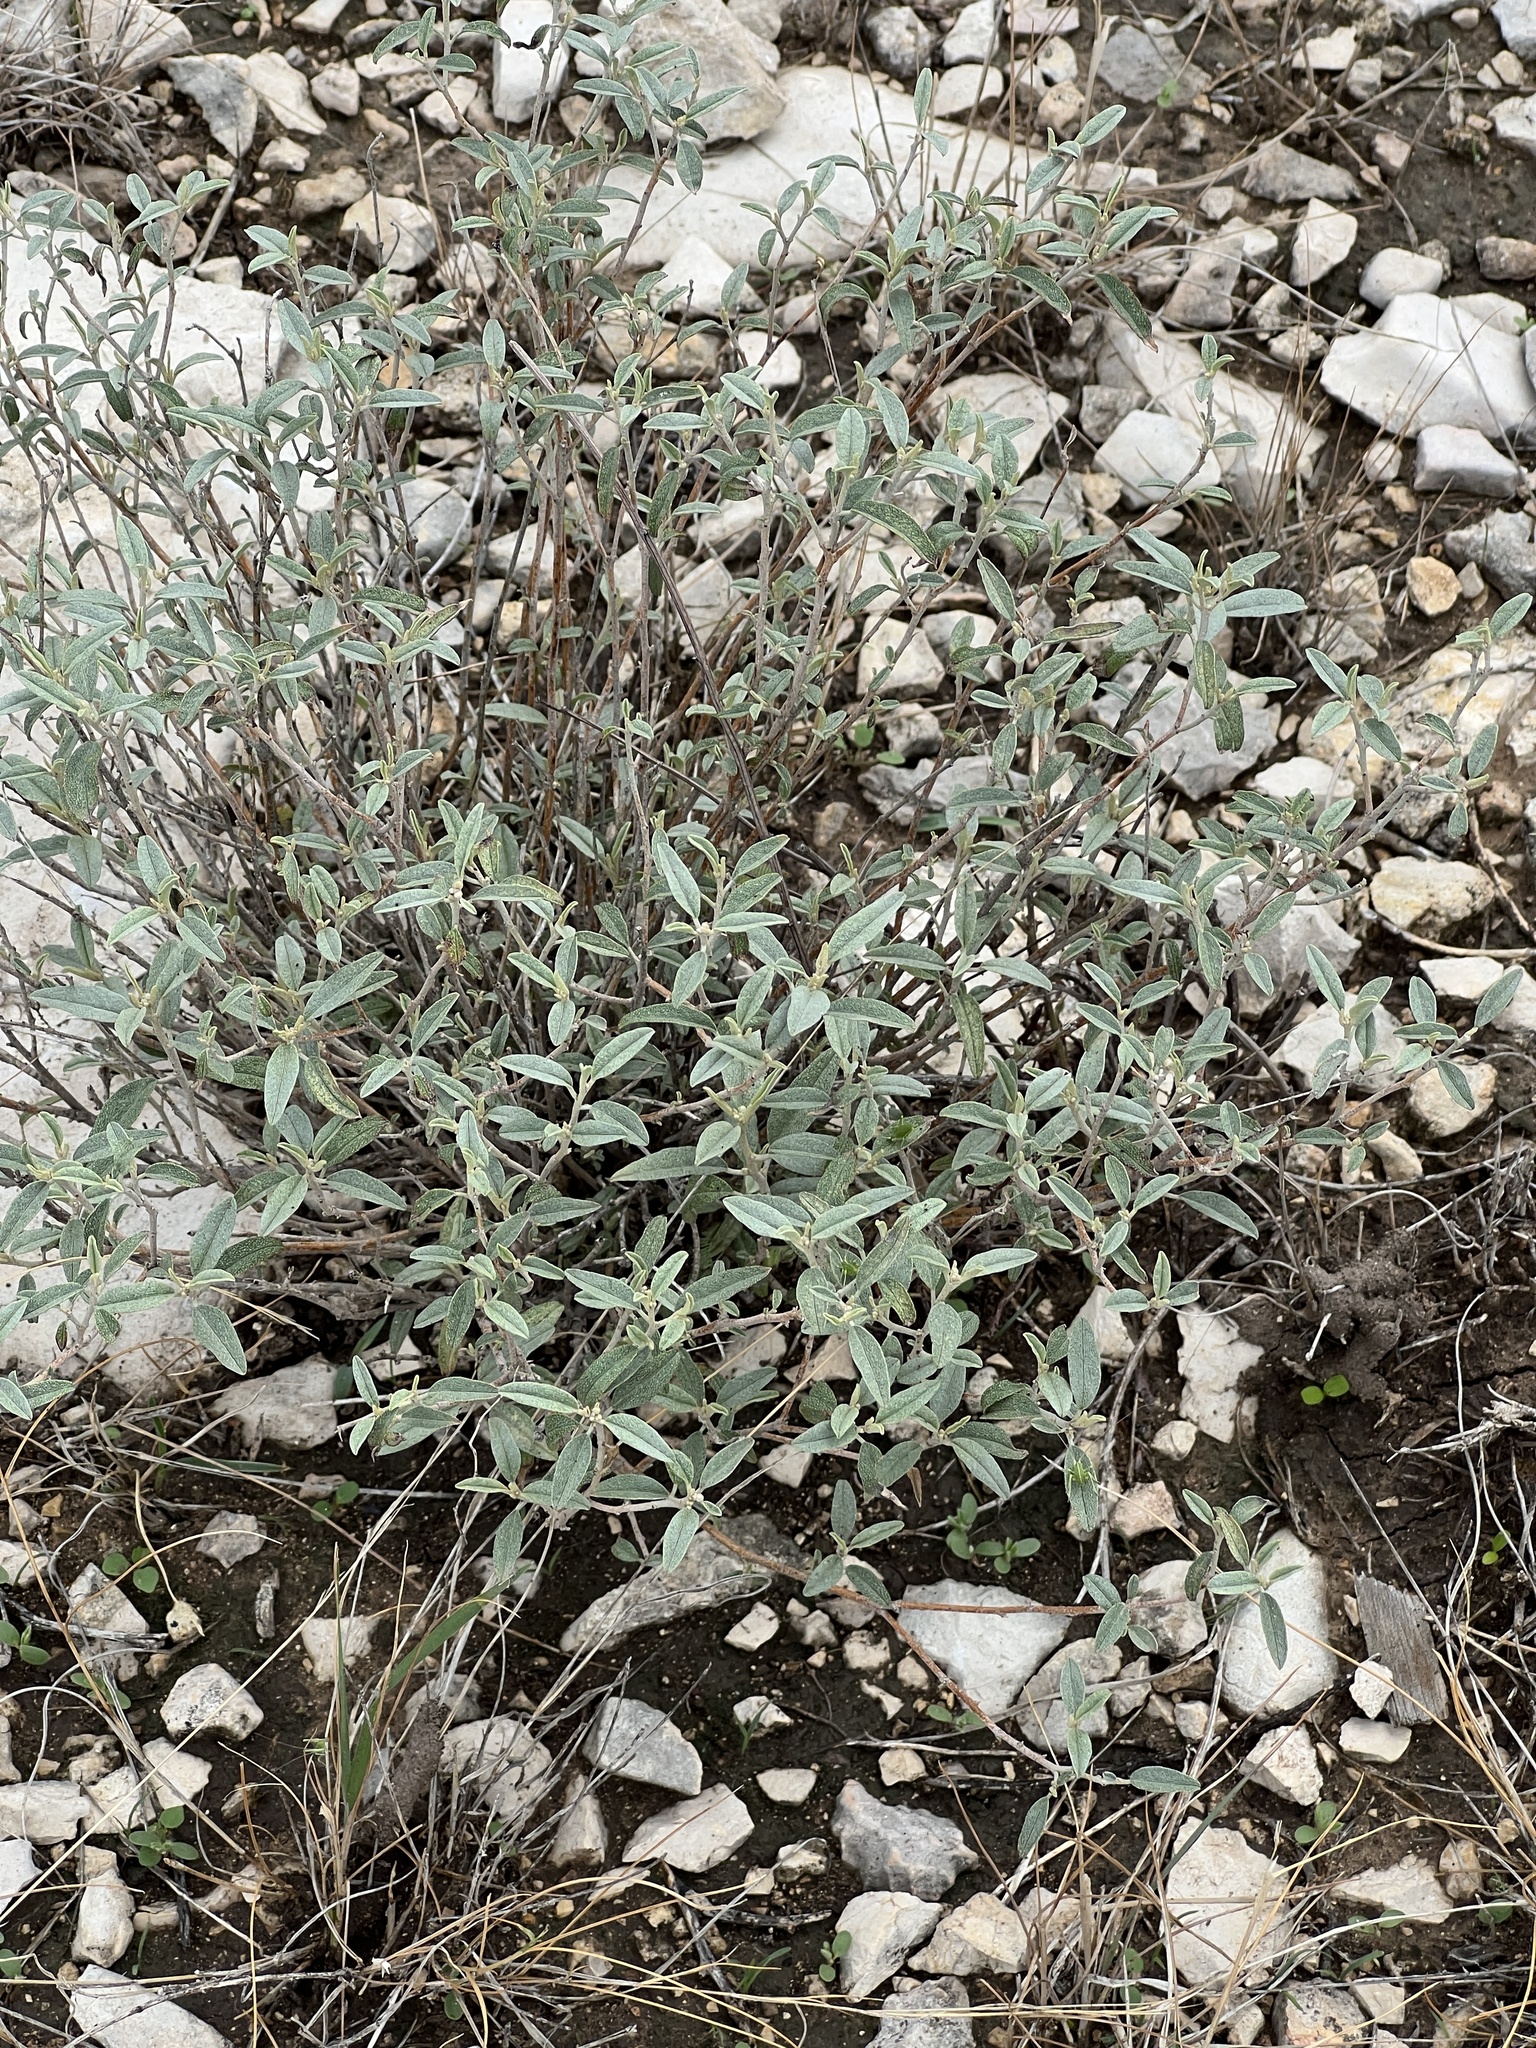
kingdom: Plantae
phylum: Tracheophyta
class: Magnoliopsida
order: Malpighiales
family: Euphorbiaceae
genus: Croton
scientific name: Croton dioicus
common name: Grassland croton
